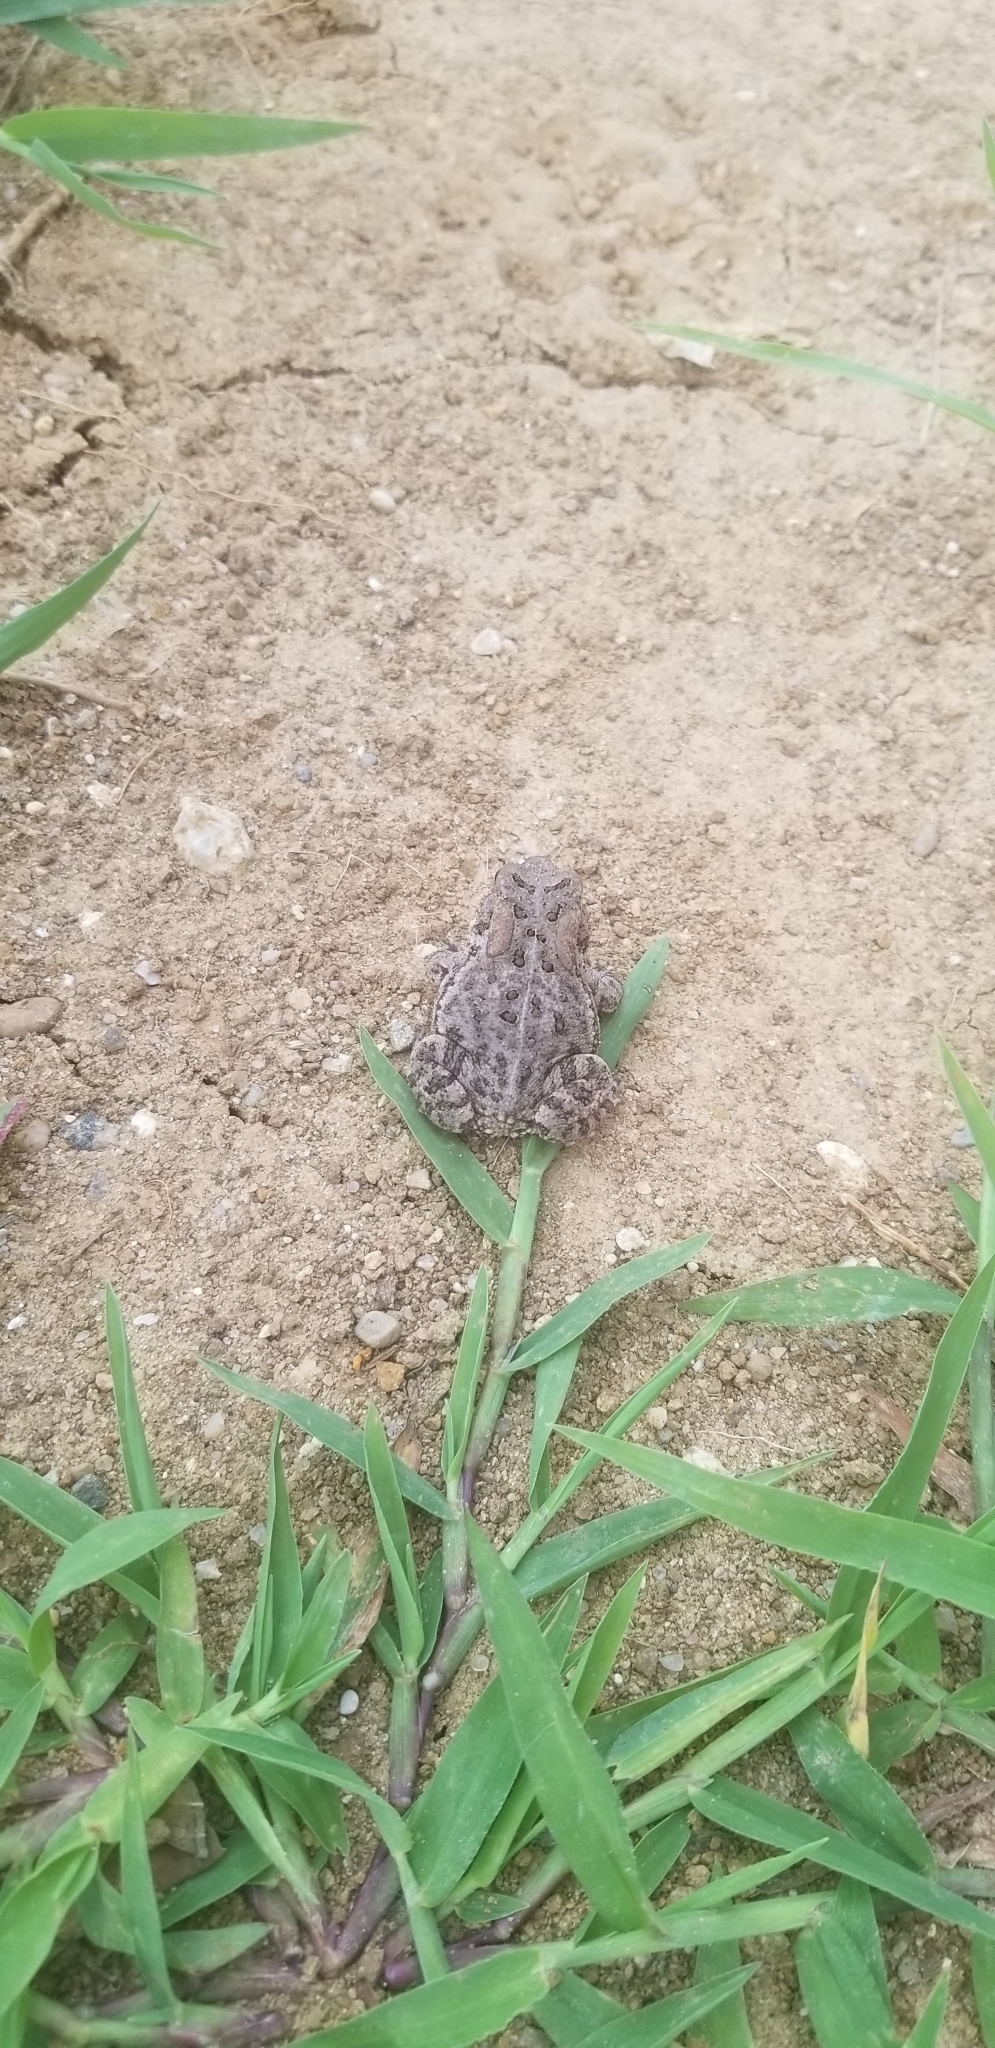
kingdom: Animalia
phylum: Chordata
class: Amphibia
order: Anura
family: Bufonidae
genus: Anaxyrus
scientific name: Anaxyrus americanus
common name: American toad
